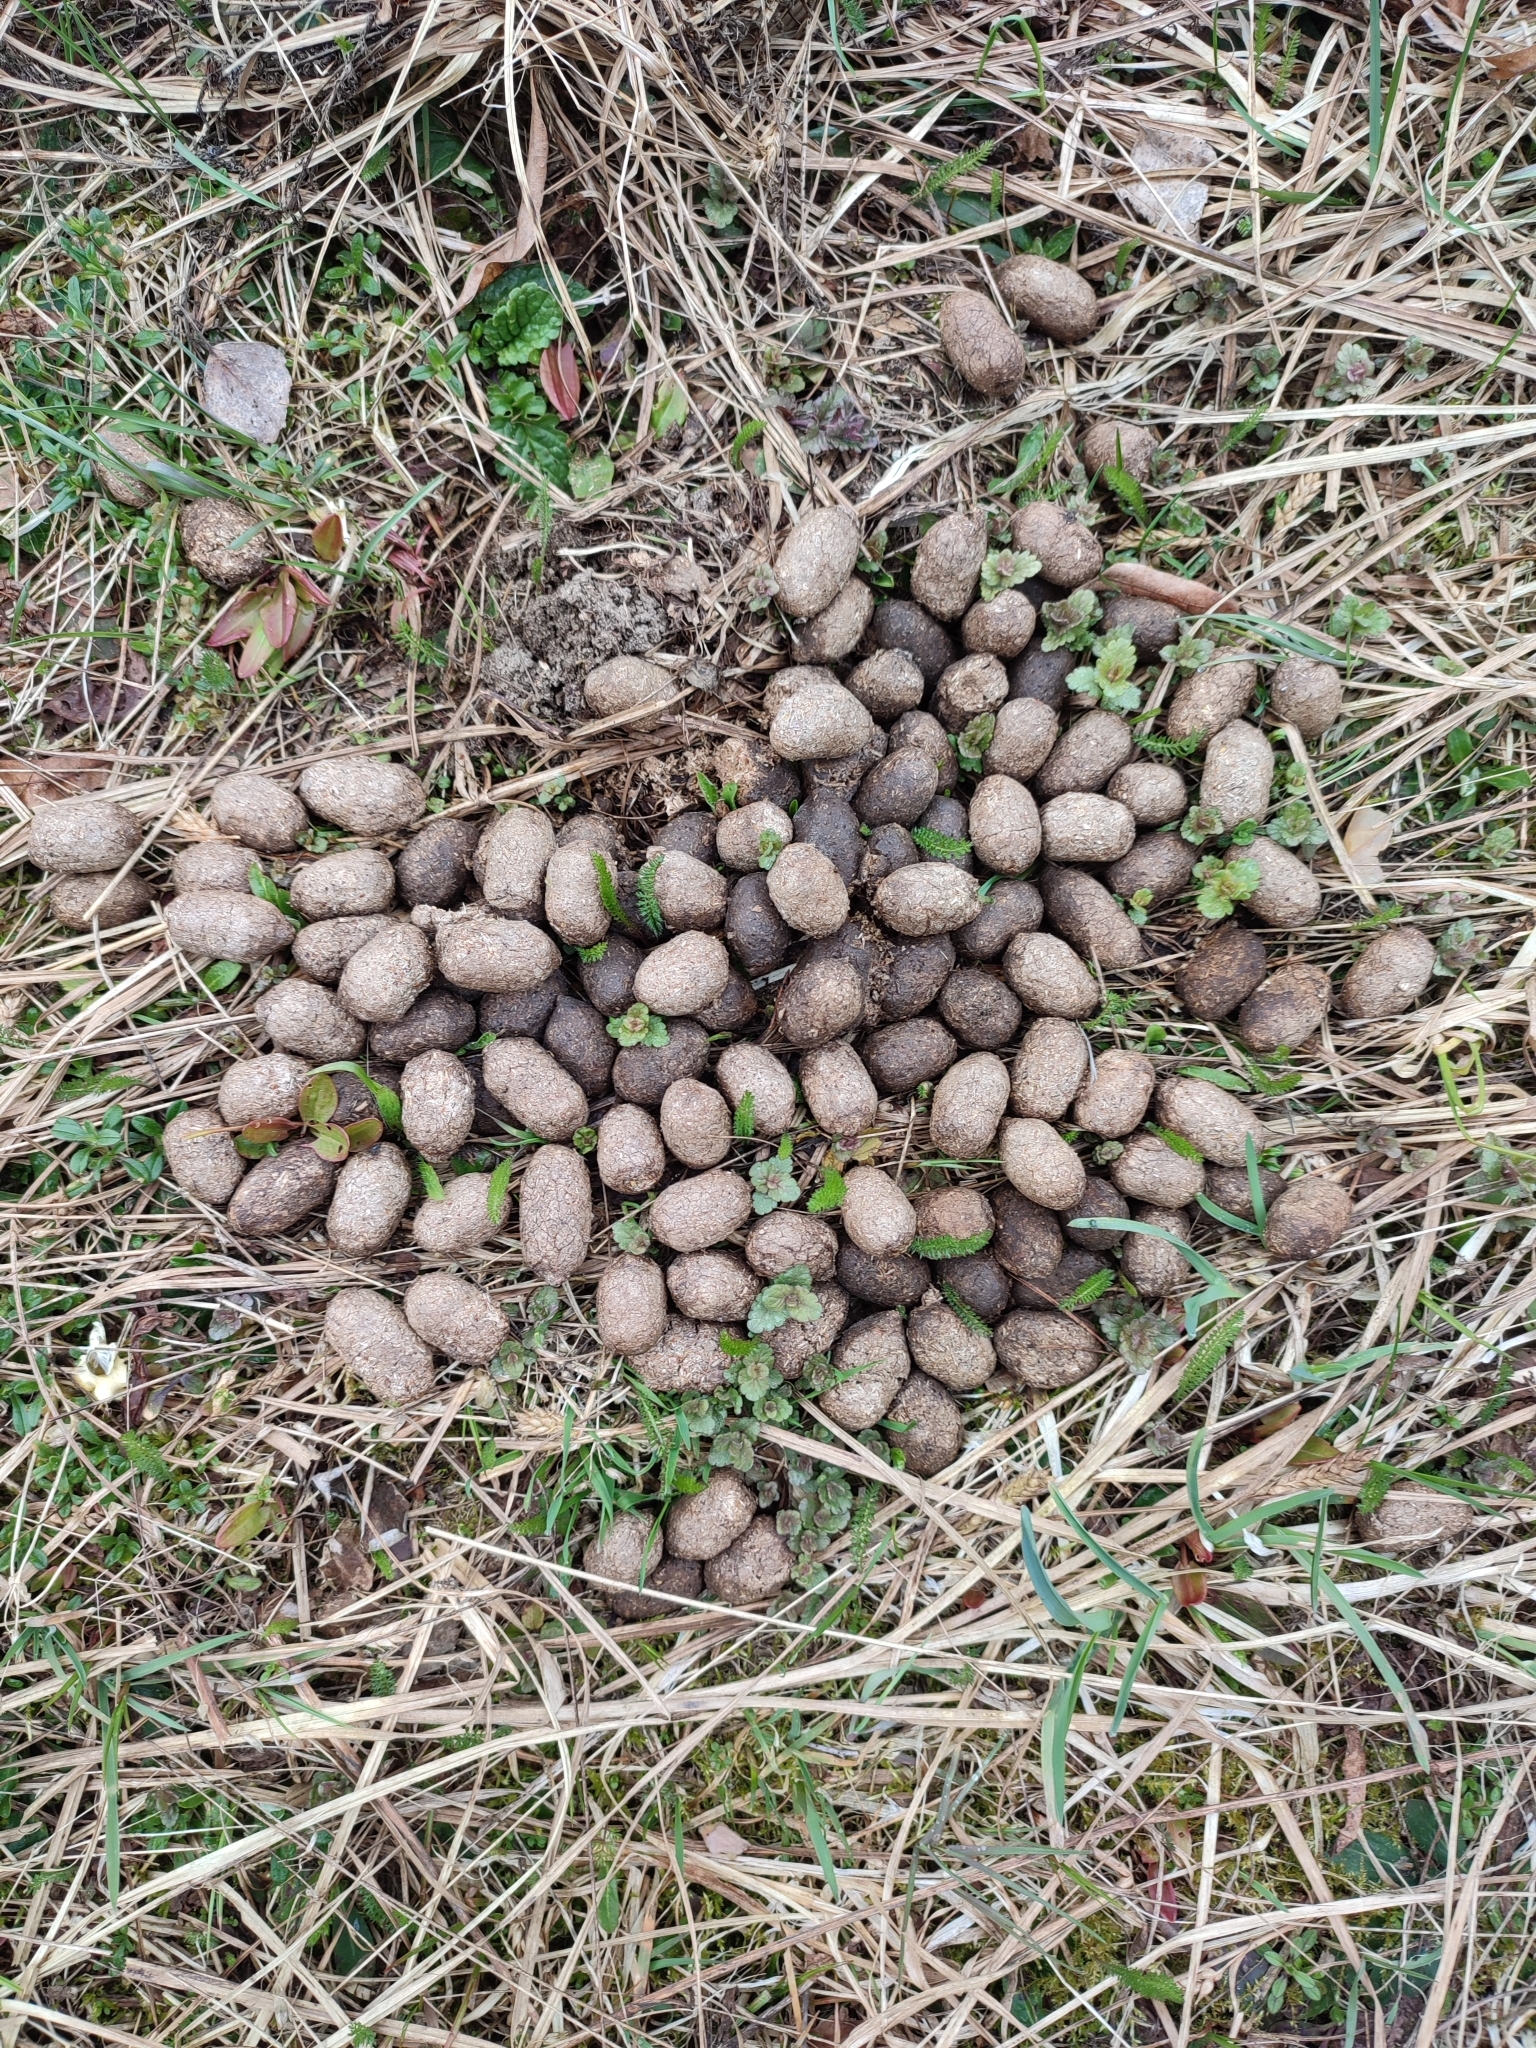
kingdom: Animalia
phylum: Chordata
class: Mammalia
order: Artiodactyla
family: Cervidae
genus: Alces
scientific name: Alces alces
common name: Moose
